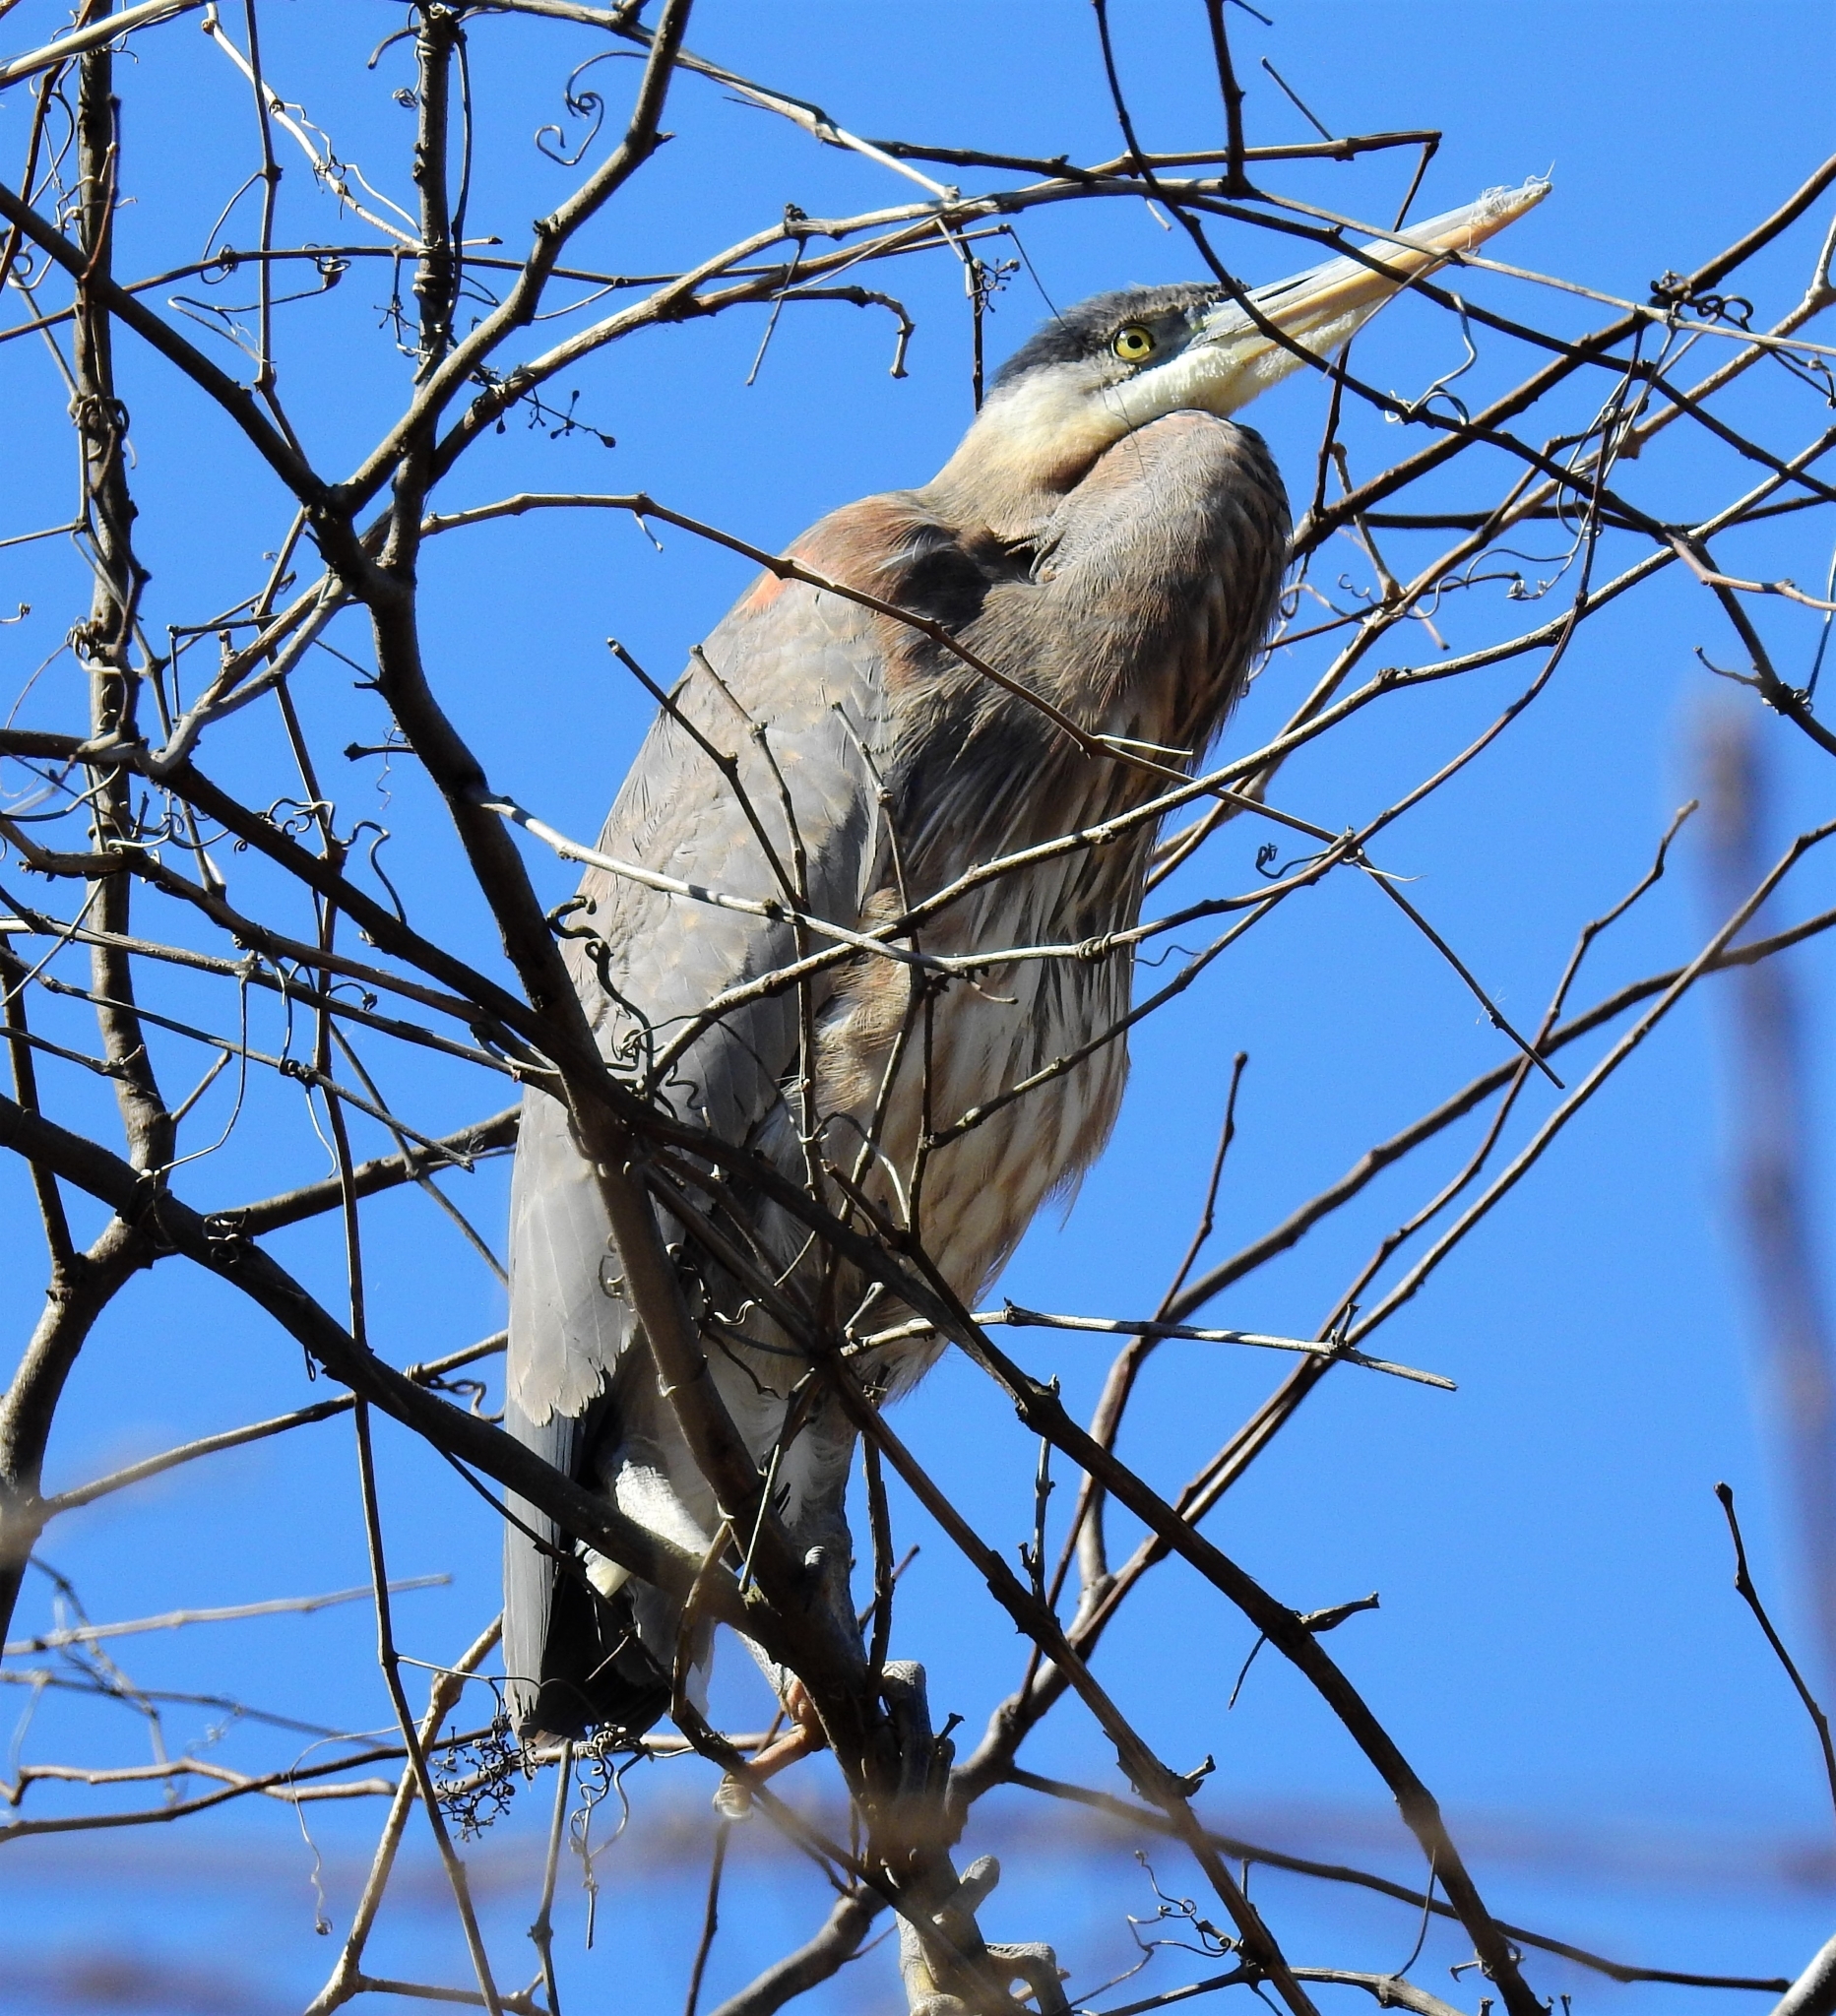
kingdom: Animalia
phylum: Chordata
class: Aves
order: Pelecaniformes
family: Ardeidae
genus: Ardea
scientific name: Ardea herodias
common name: Great blue heron
